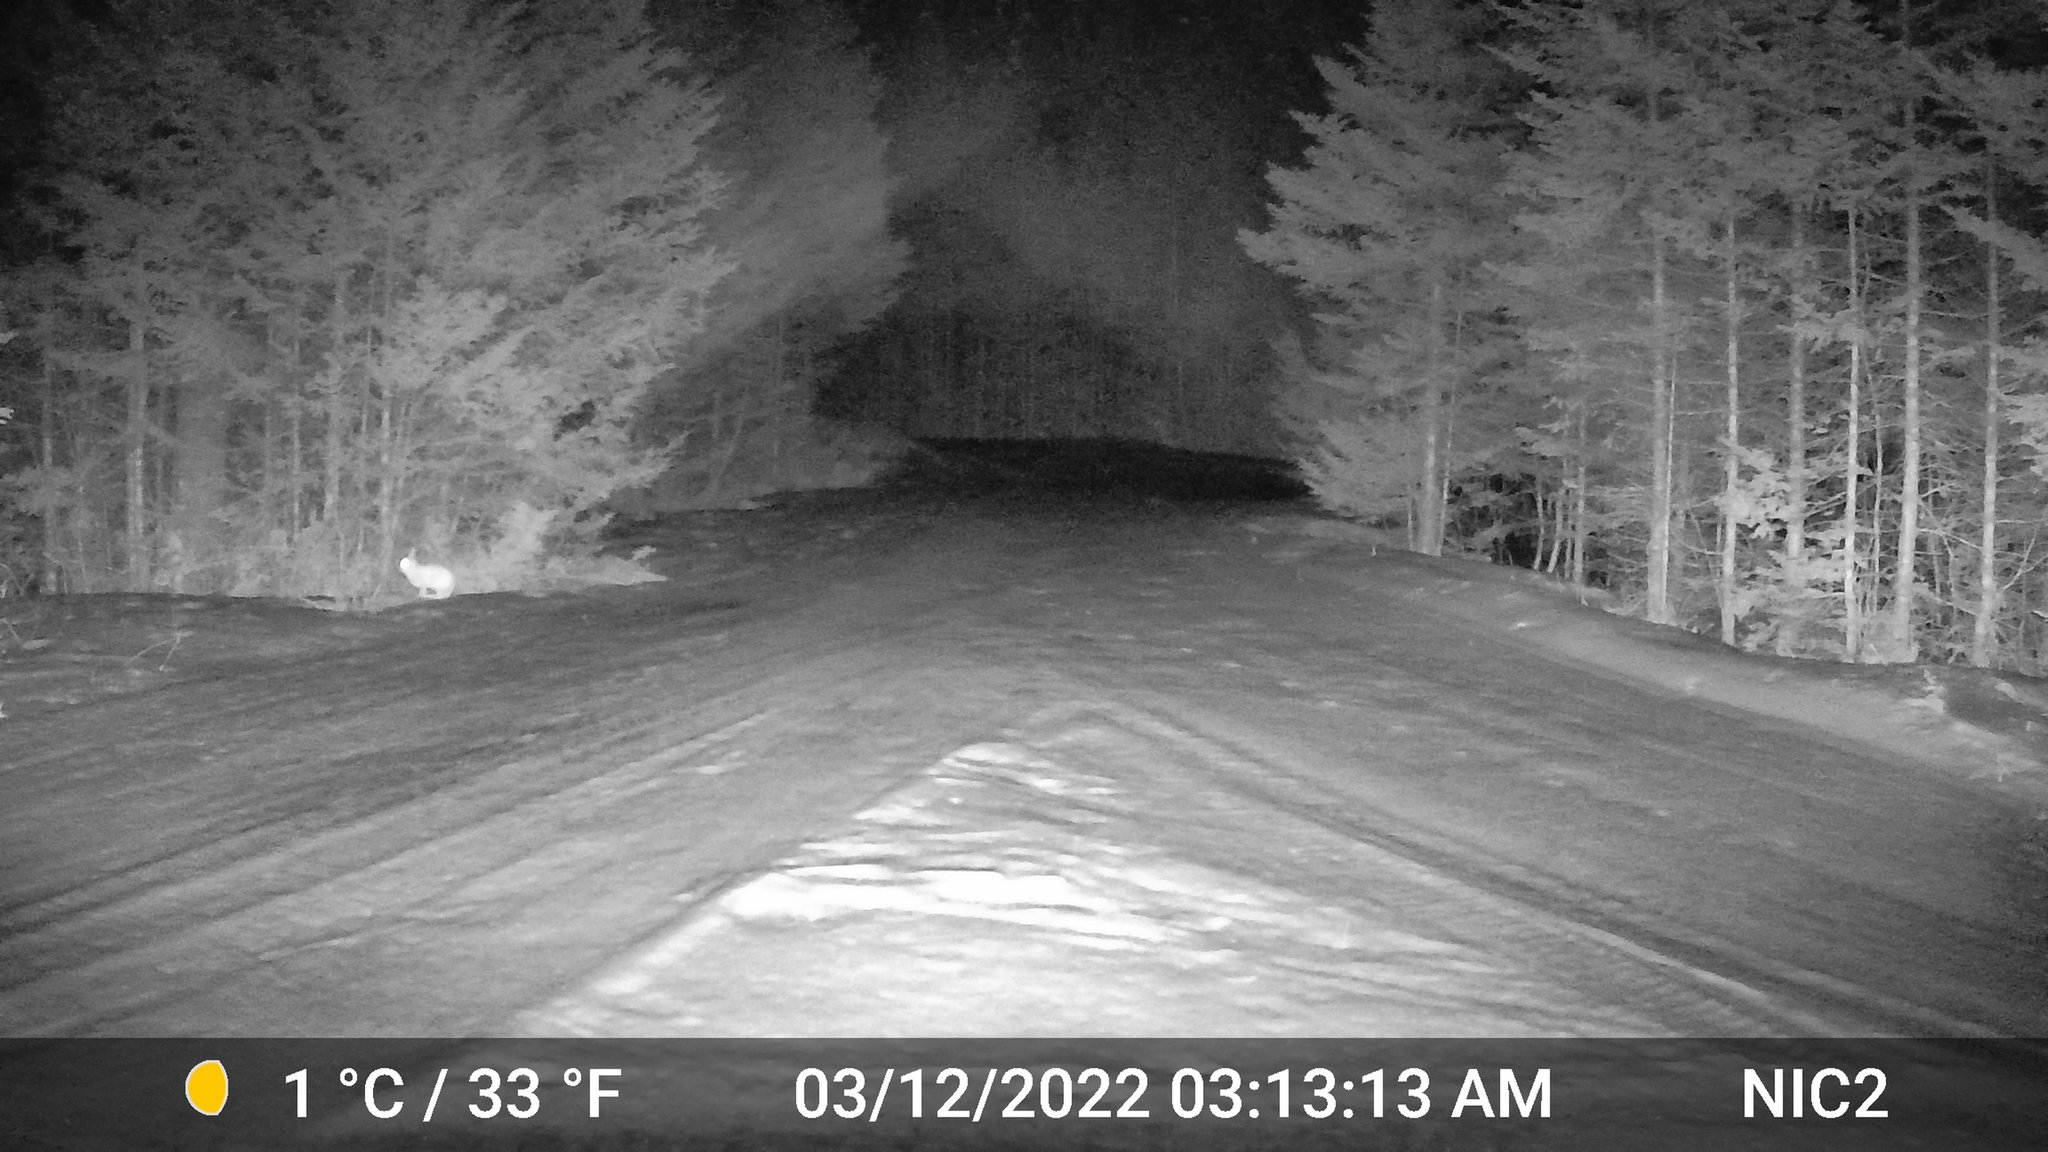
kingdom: Animalia
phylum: Chordata
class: Mammalia
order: Lagomorpha
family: Leporidae
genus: Lepus
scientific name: Lepus americanus
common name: Snowshoe hare
